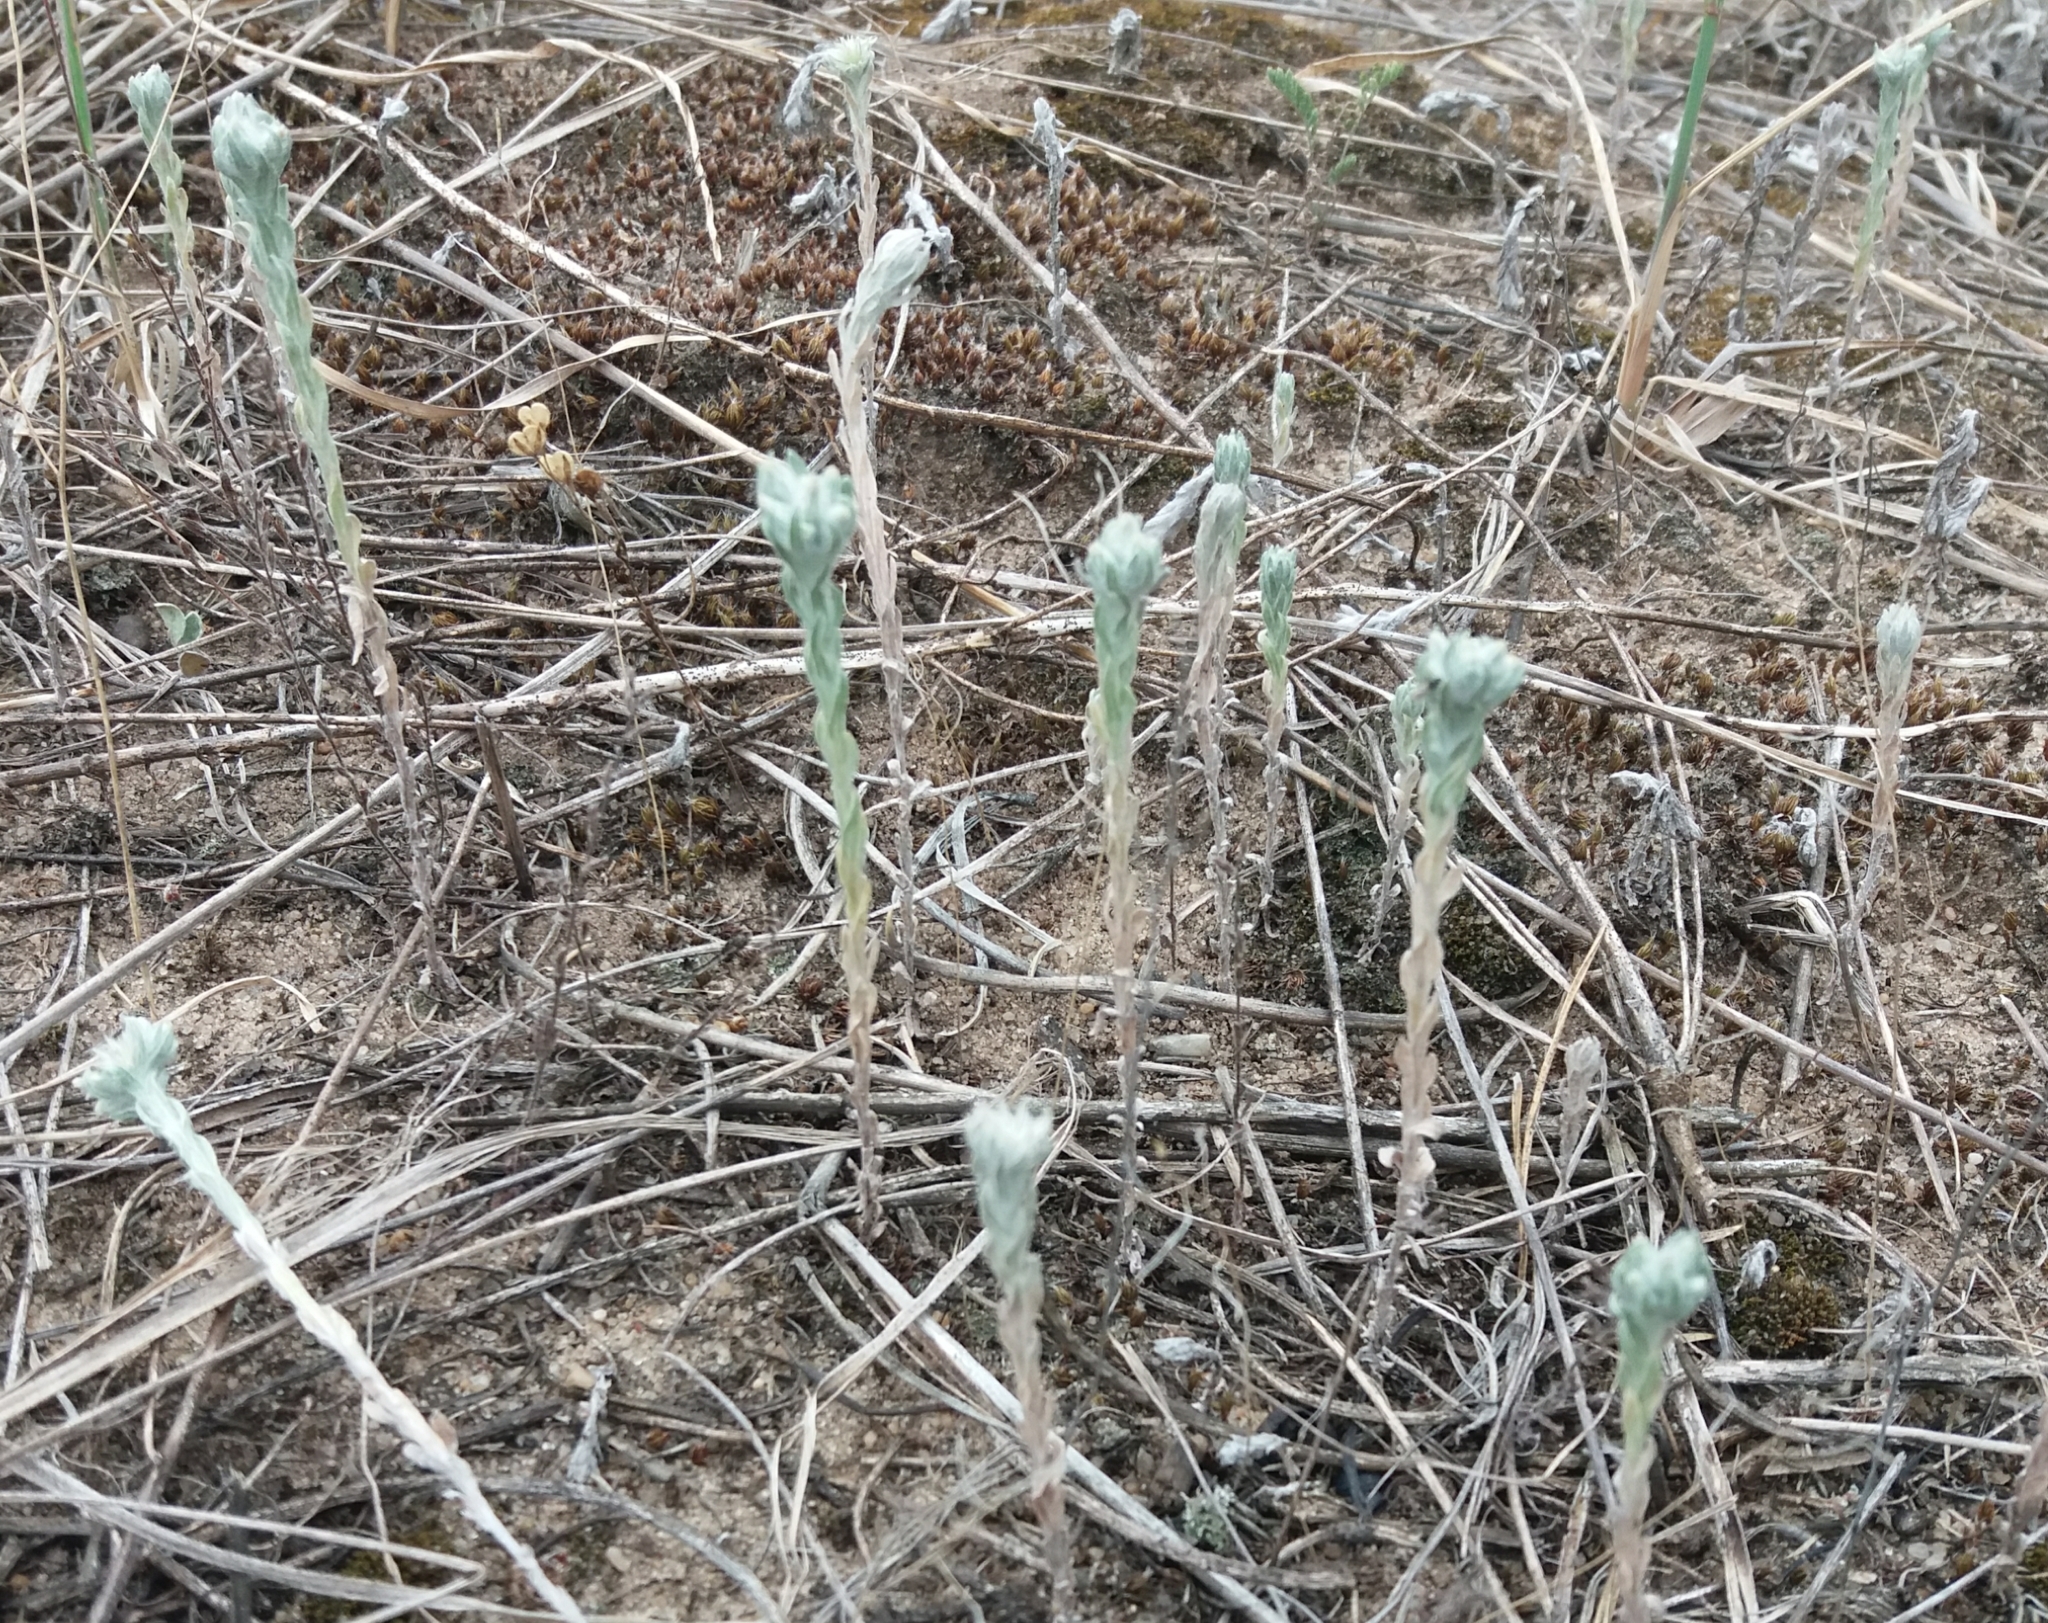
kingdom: Plantae
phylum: Tracheophyta
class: Magnoliopsida
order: Asterales
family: Asteraceae
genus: Filago
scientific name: Filago arvensis
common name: Field cudweed
